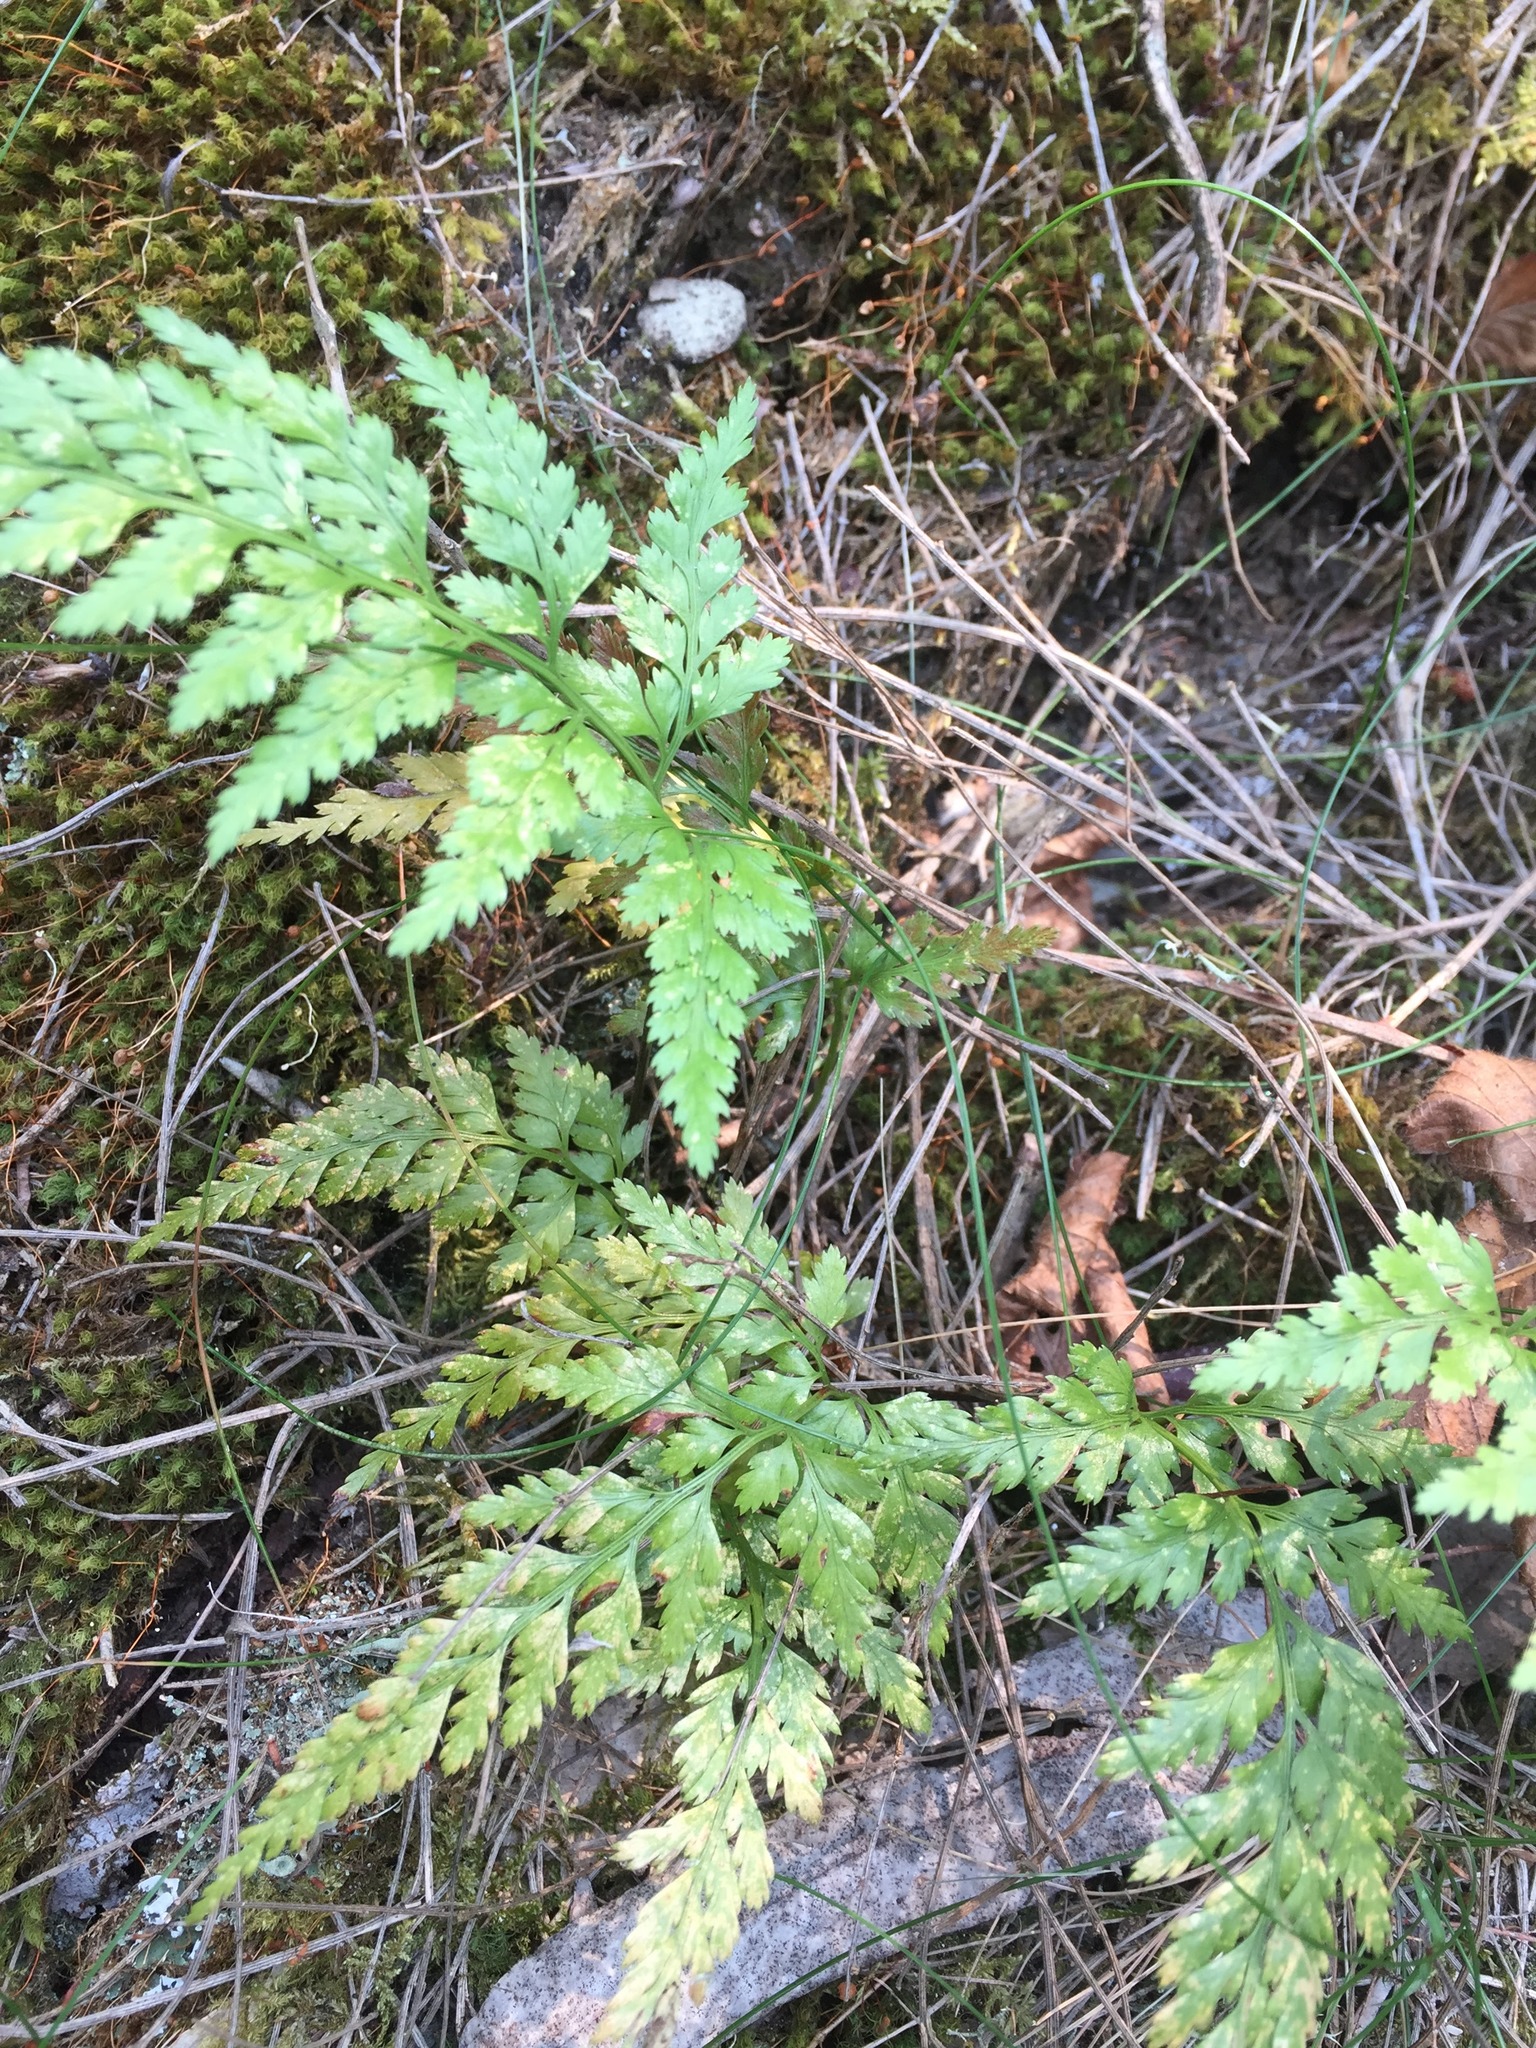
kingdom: Plantae
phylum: Tracheophyta
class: Polypodiopsida
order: Polypodiales
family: Aspleniaceae
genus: Asplenium
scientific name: Asplenium onopteris
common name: Irish spleenwort
